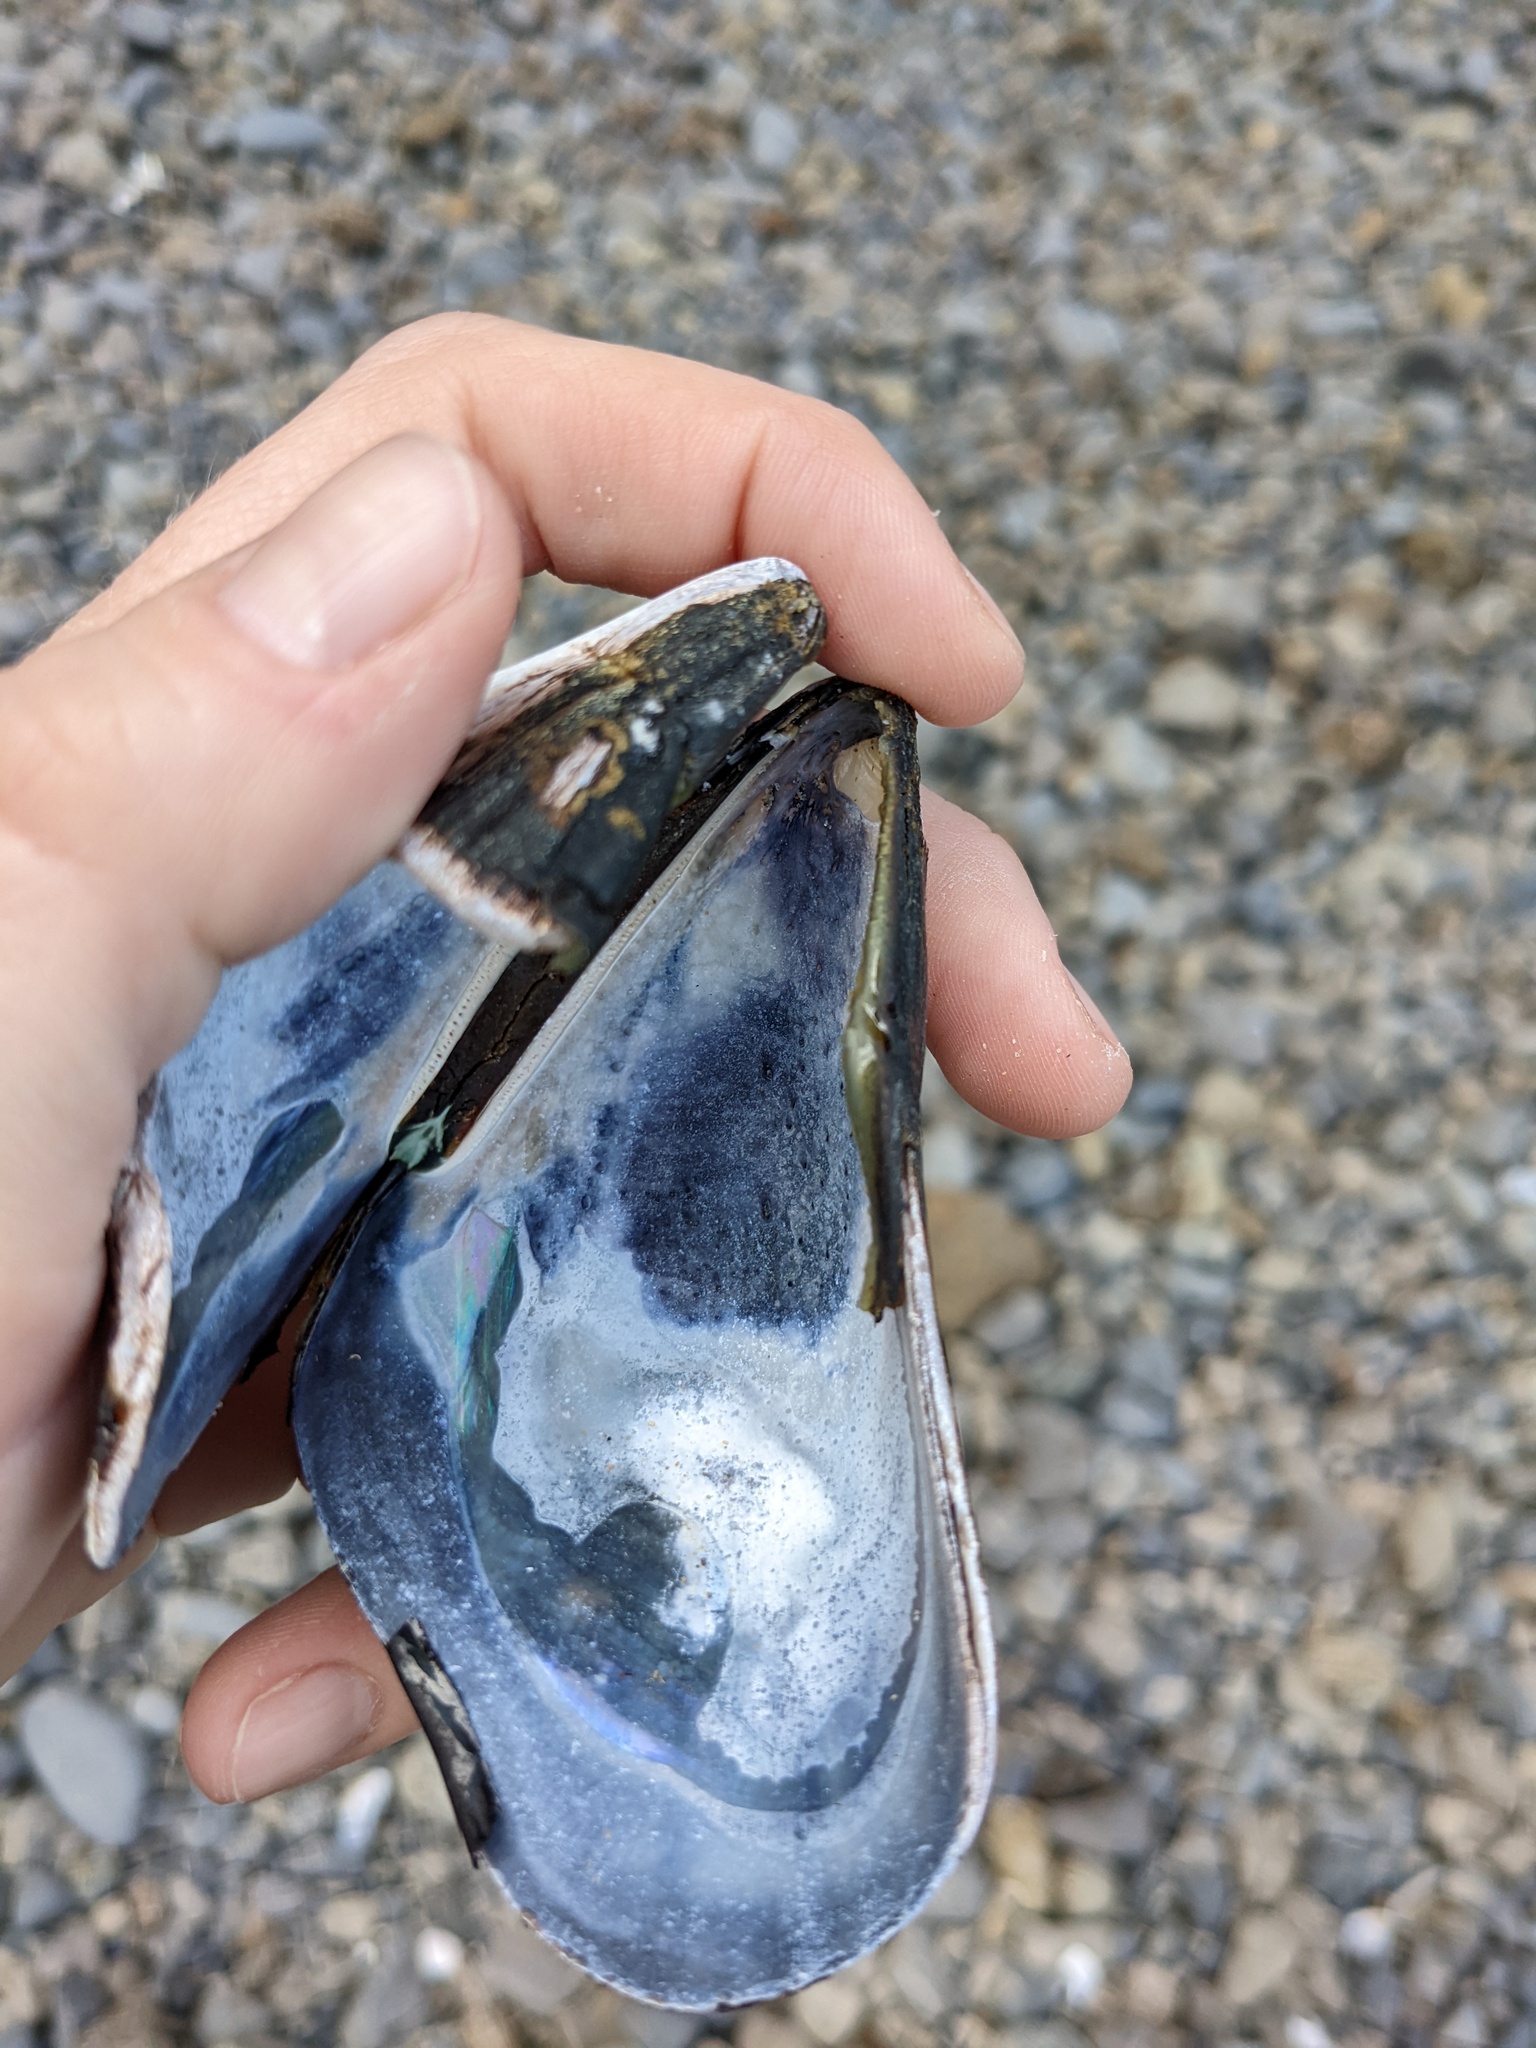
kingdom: Animalia
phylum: Mollusca
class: Bivalvia
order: Mytilida
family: Mytilidae
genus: Mytilus
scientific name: Mytilus californianus
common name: California mussel
